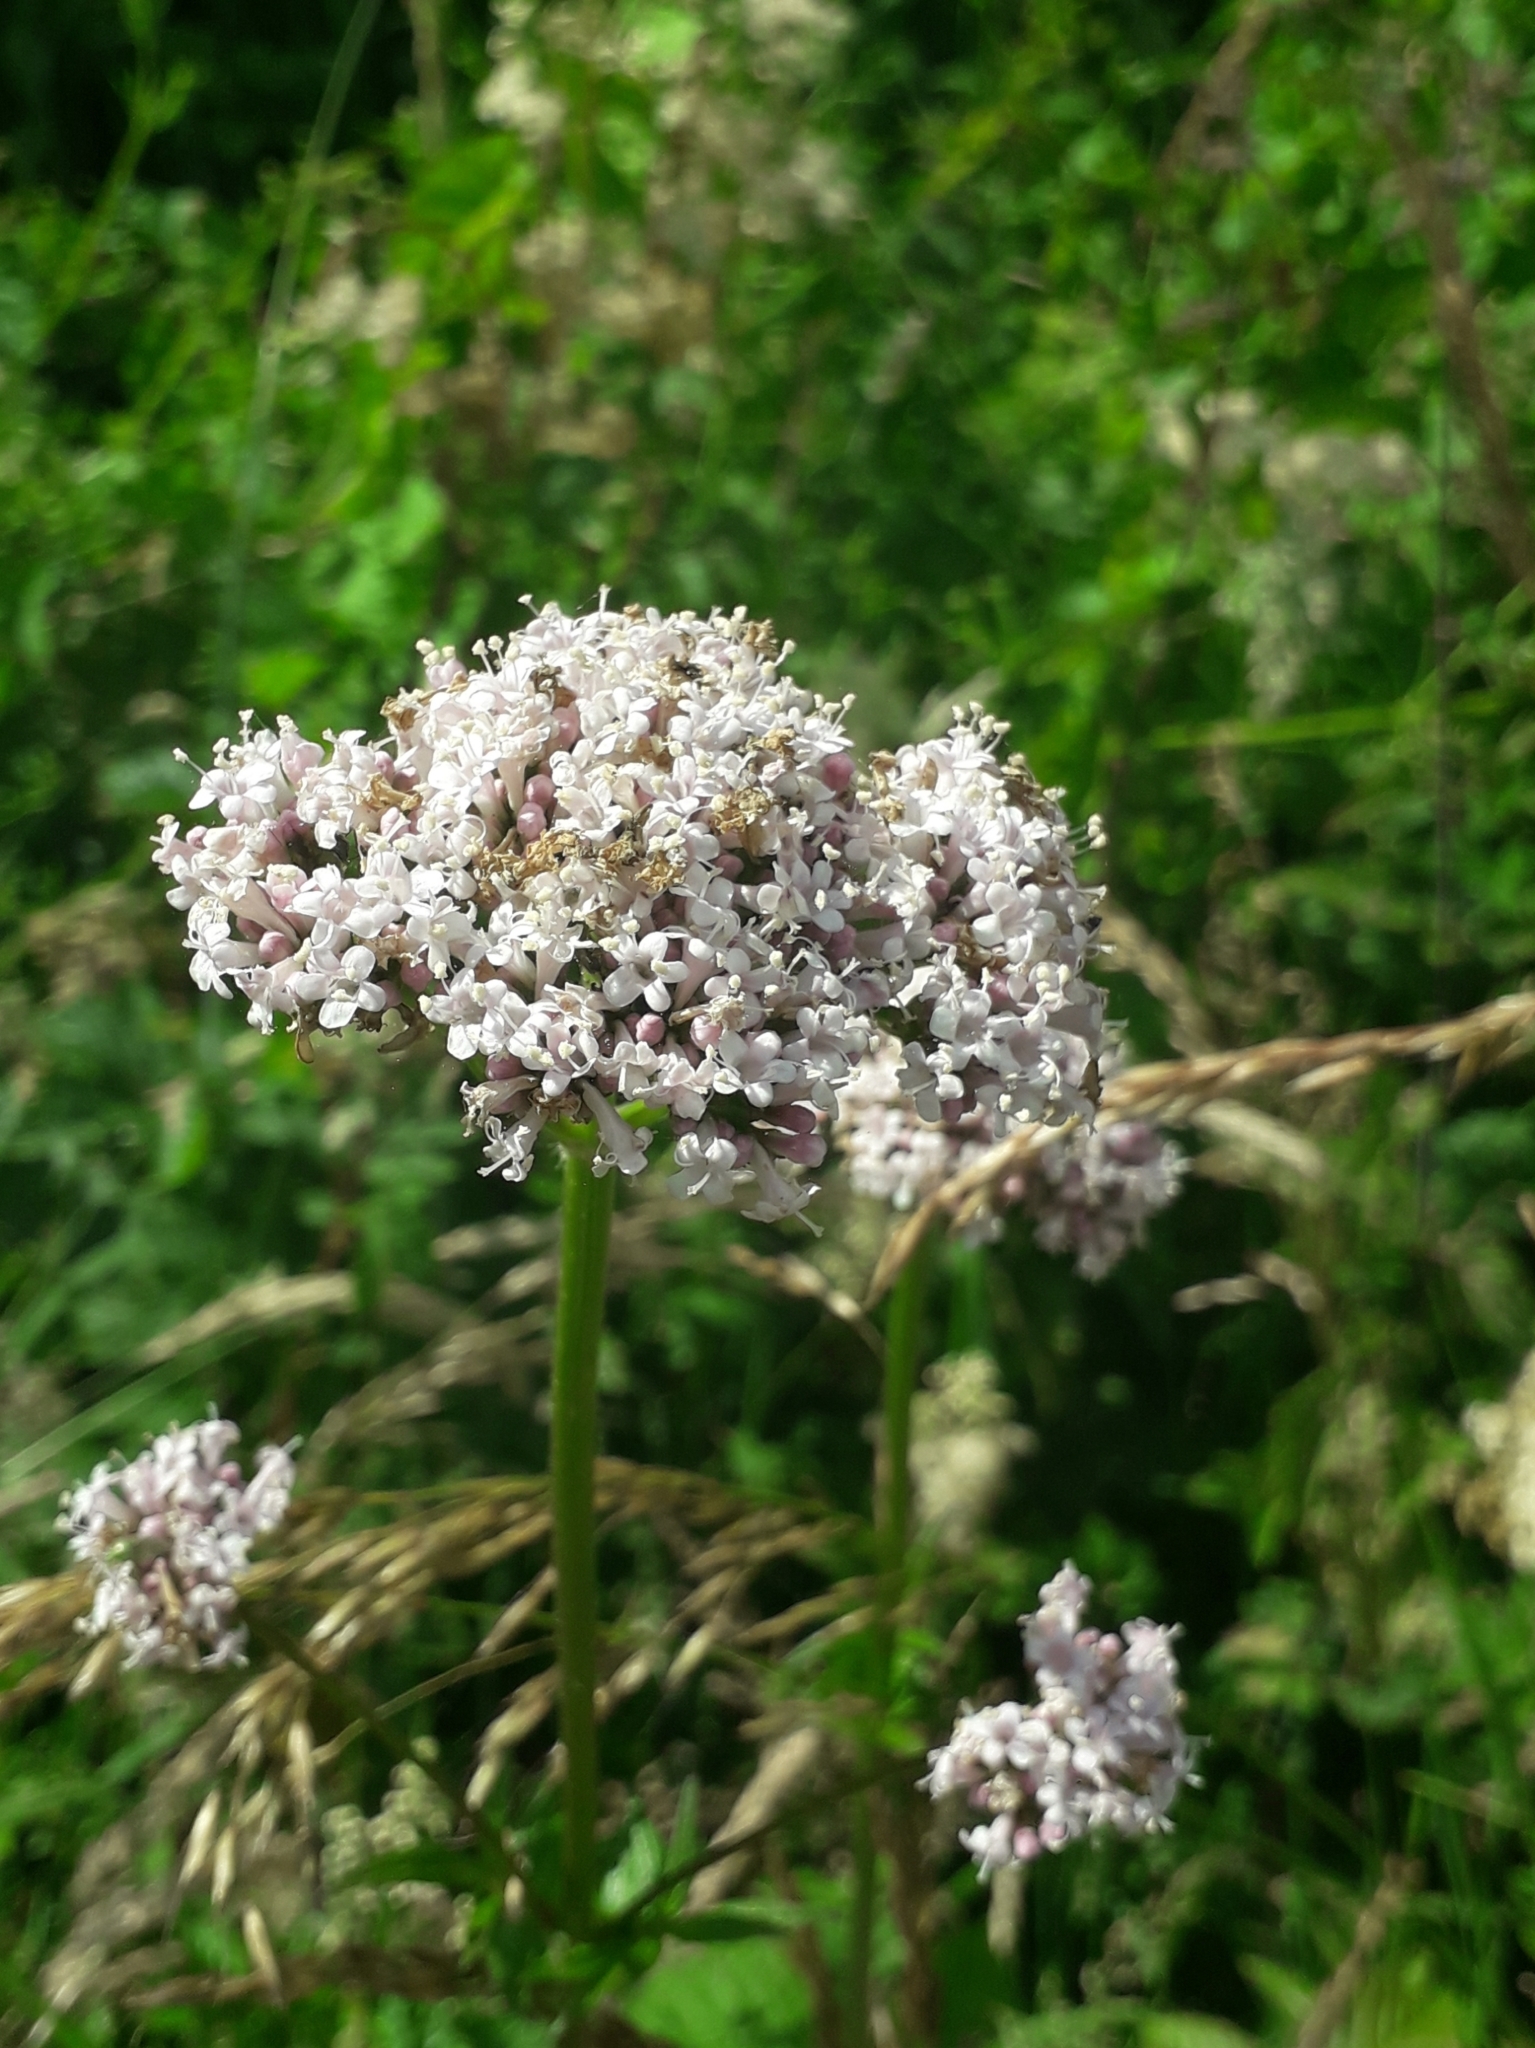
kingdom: Plantae
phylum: Tracheophyta
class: Magnoliopsida
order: Dipsacales
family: Caprifoliaceae
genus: Valeriana
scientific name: Valeriana officinalis
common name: Common valerian
